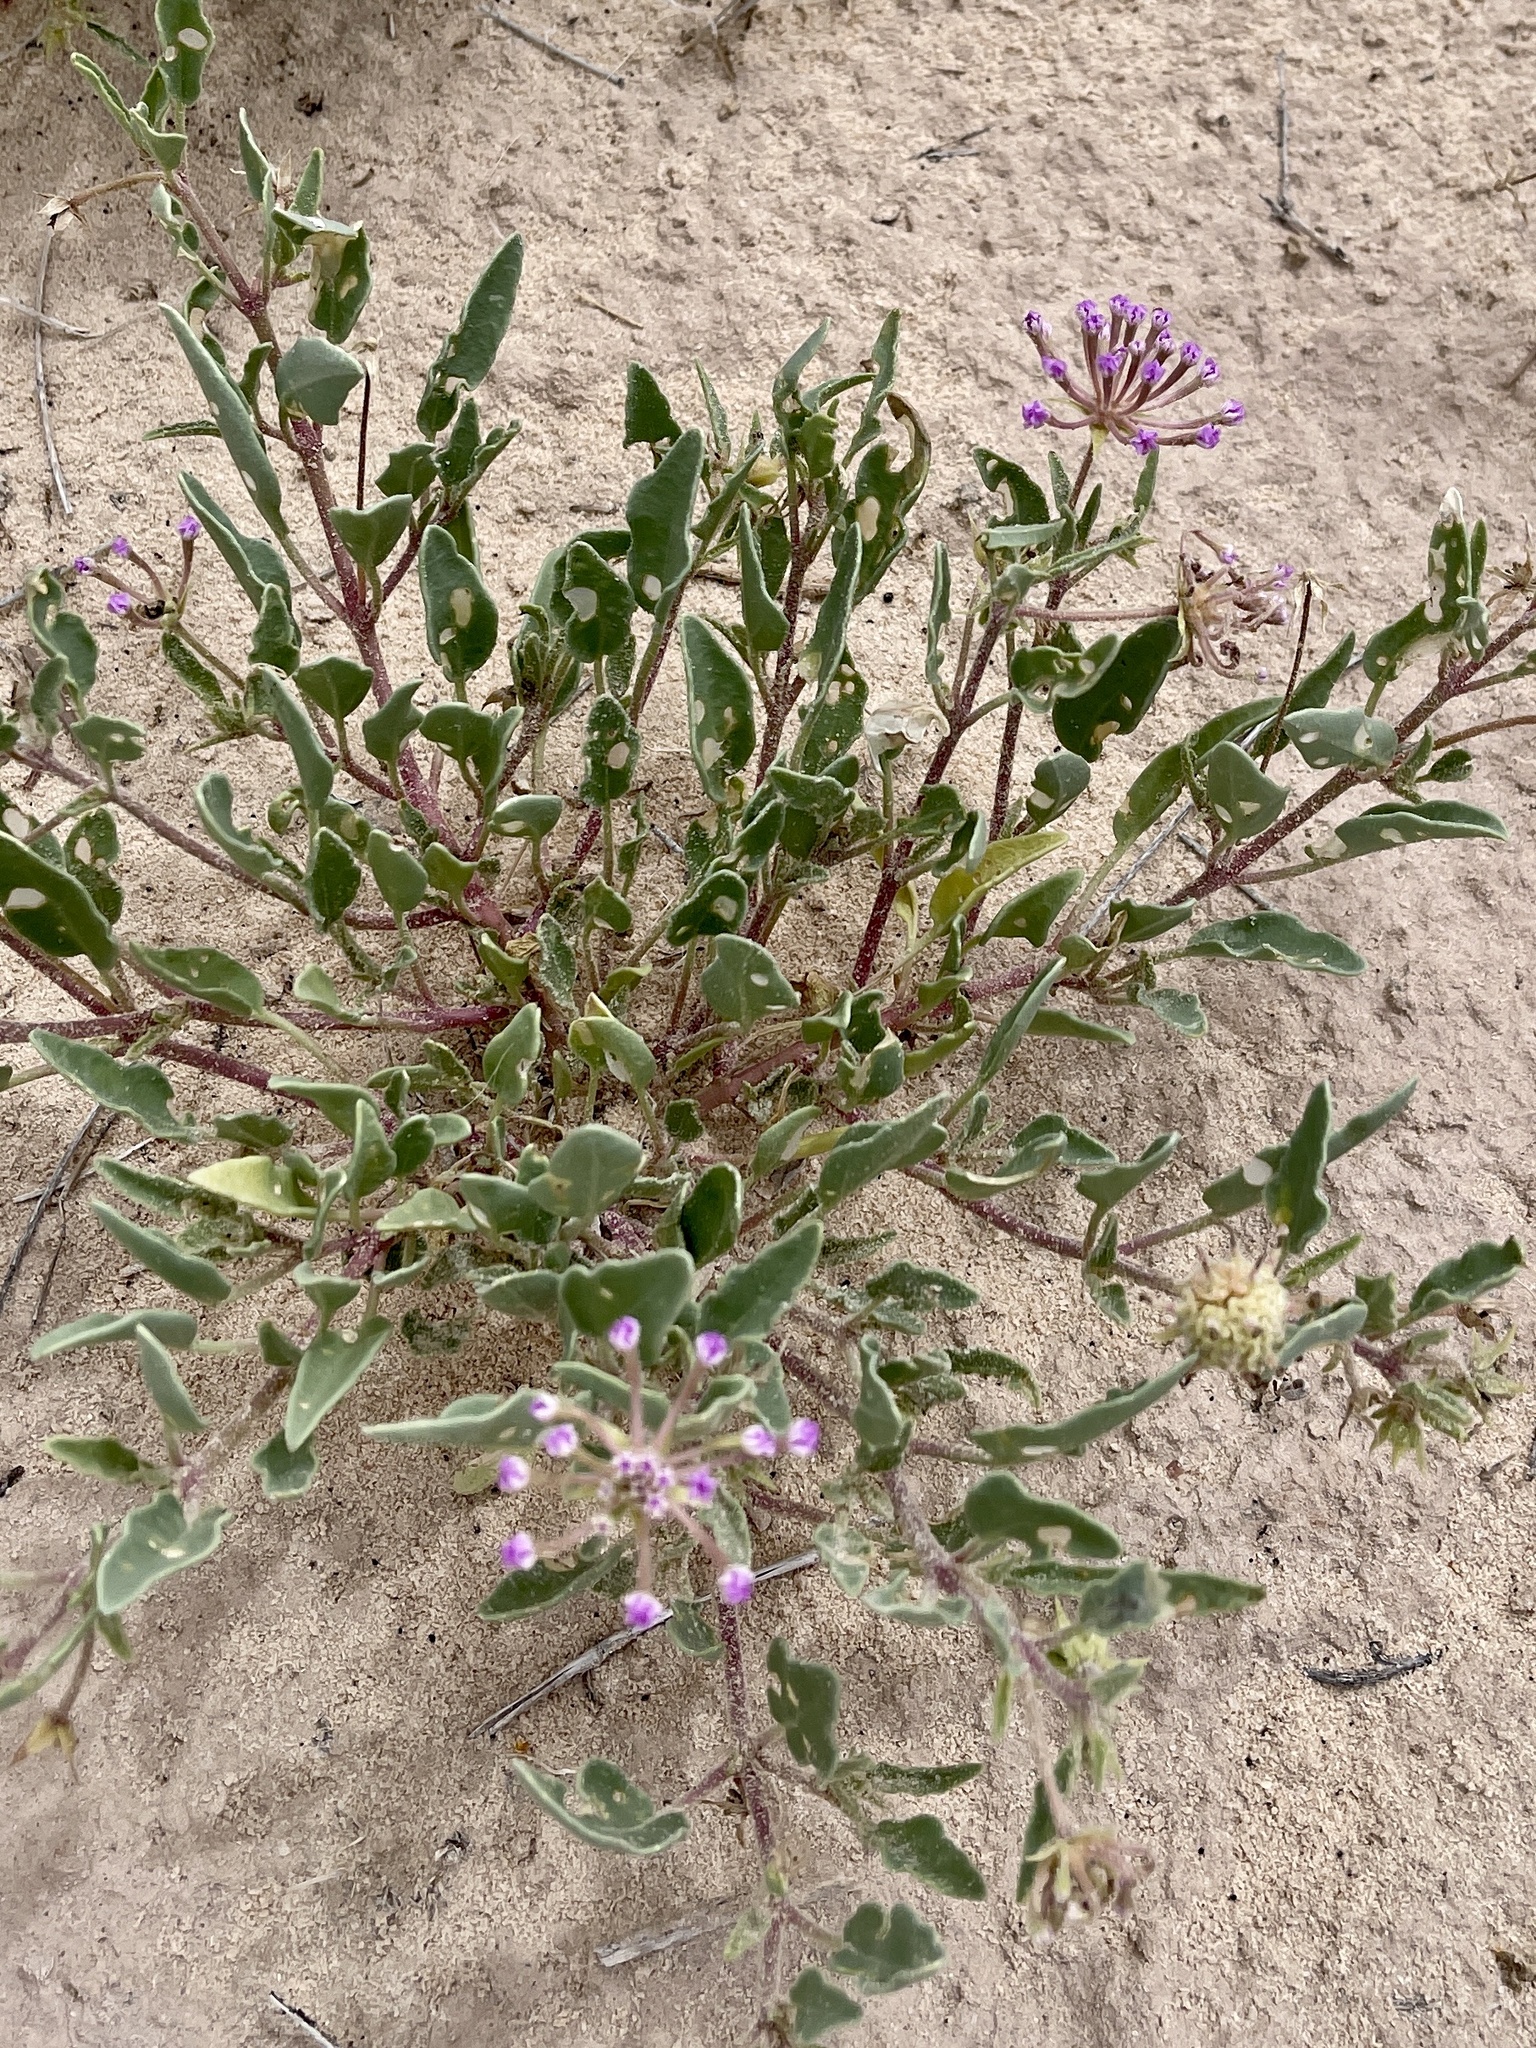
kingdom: Plantae
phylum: Tracheophyta
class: Magnoliopsida
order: Caryophyllales
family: Nyctaginaceae
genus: Abronia
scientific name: Abronia angustifolia
